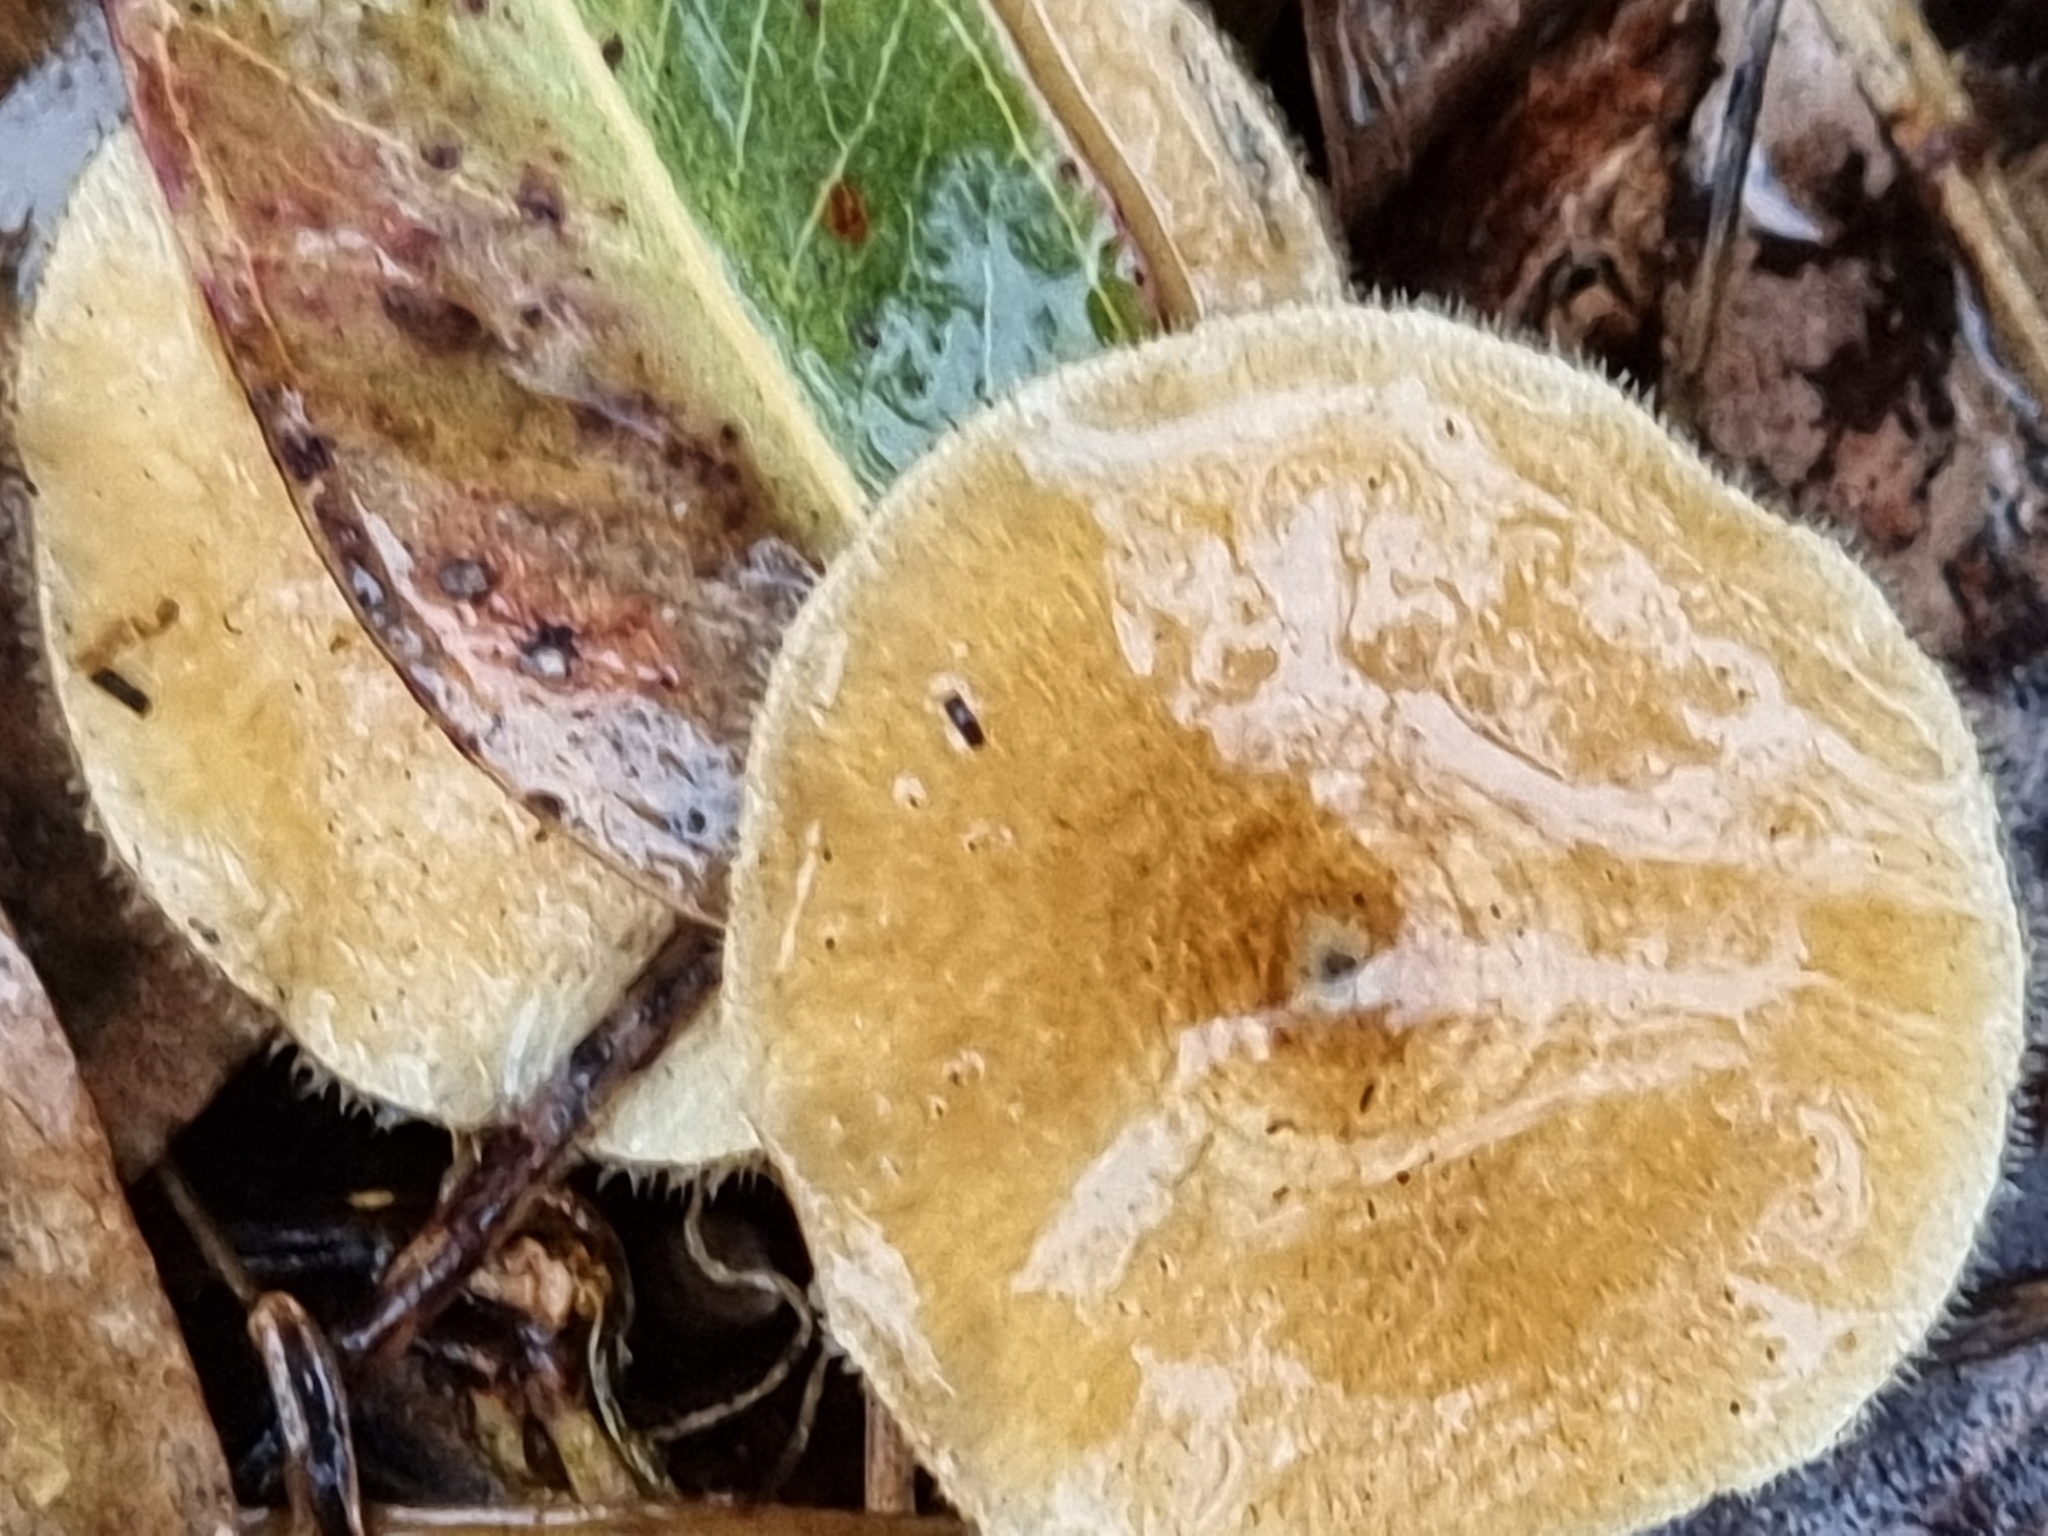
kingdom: Fungi
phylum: Basidiomycota
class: Agaricomycetes
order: Polyporales
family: Polyporaceae
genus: Lentinus
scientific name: Lentinus arcularius
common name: Spring polypore
